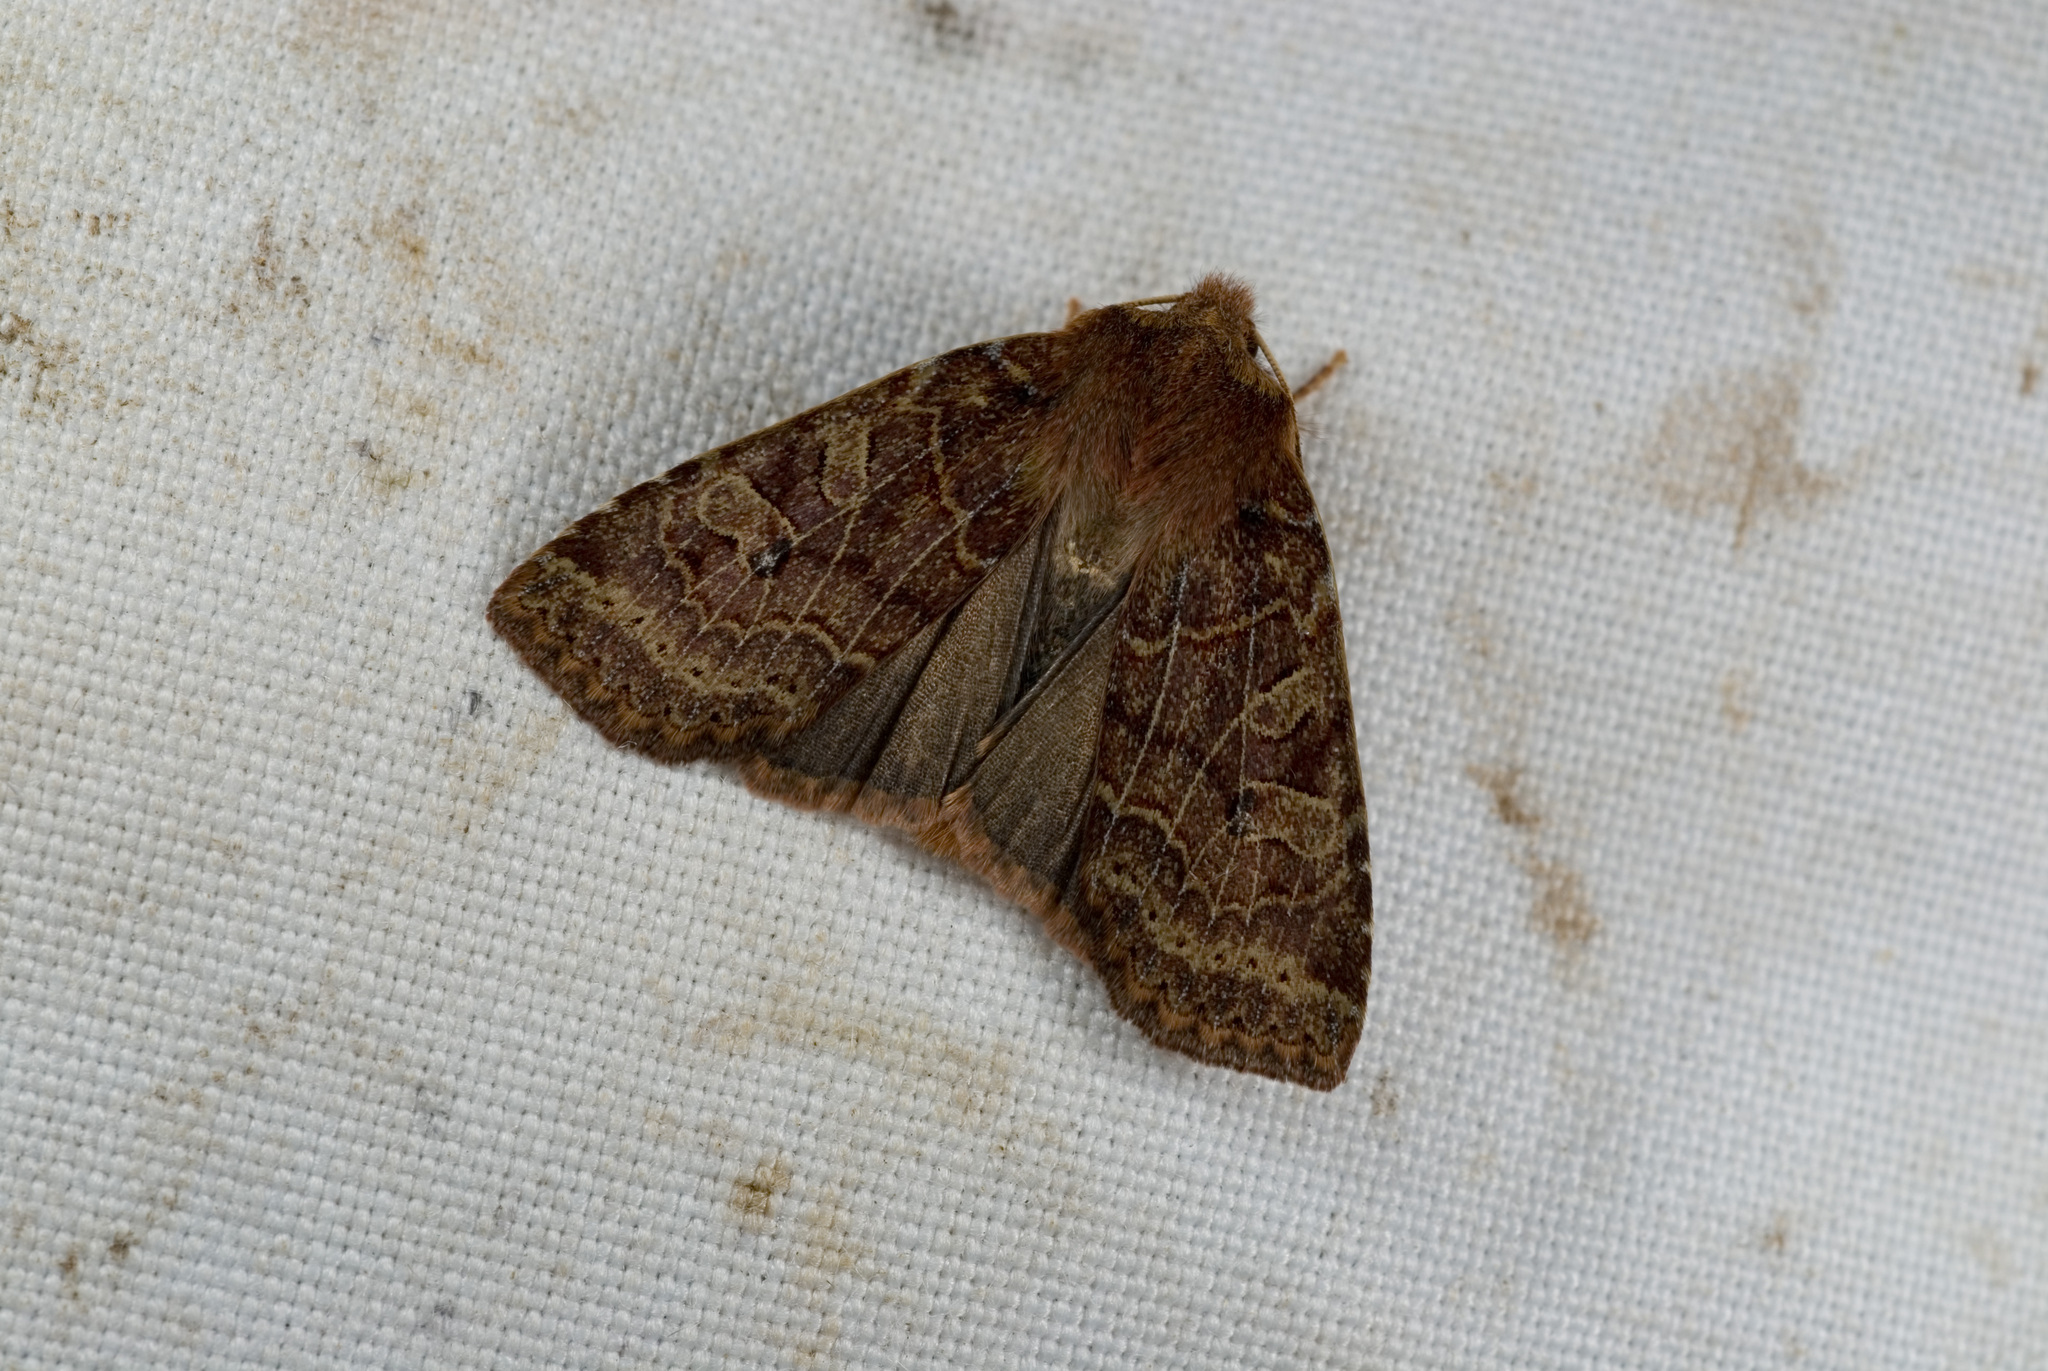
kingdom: Animalia
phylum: Arthropoda
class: Insecta
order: Lepidoptera
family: Noctuidae
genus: Conistra
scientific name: Conistra takasago
